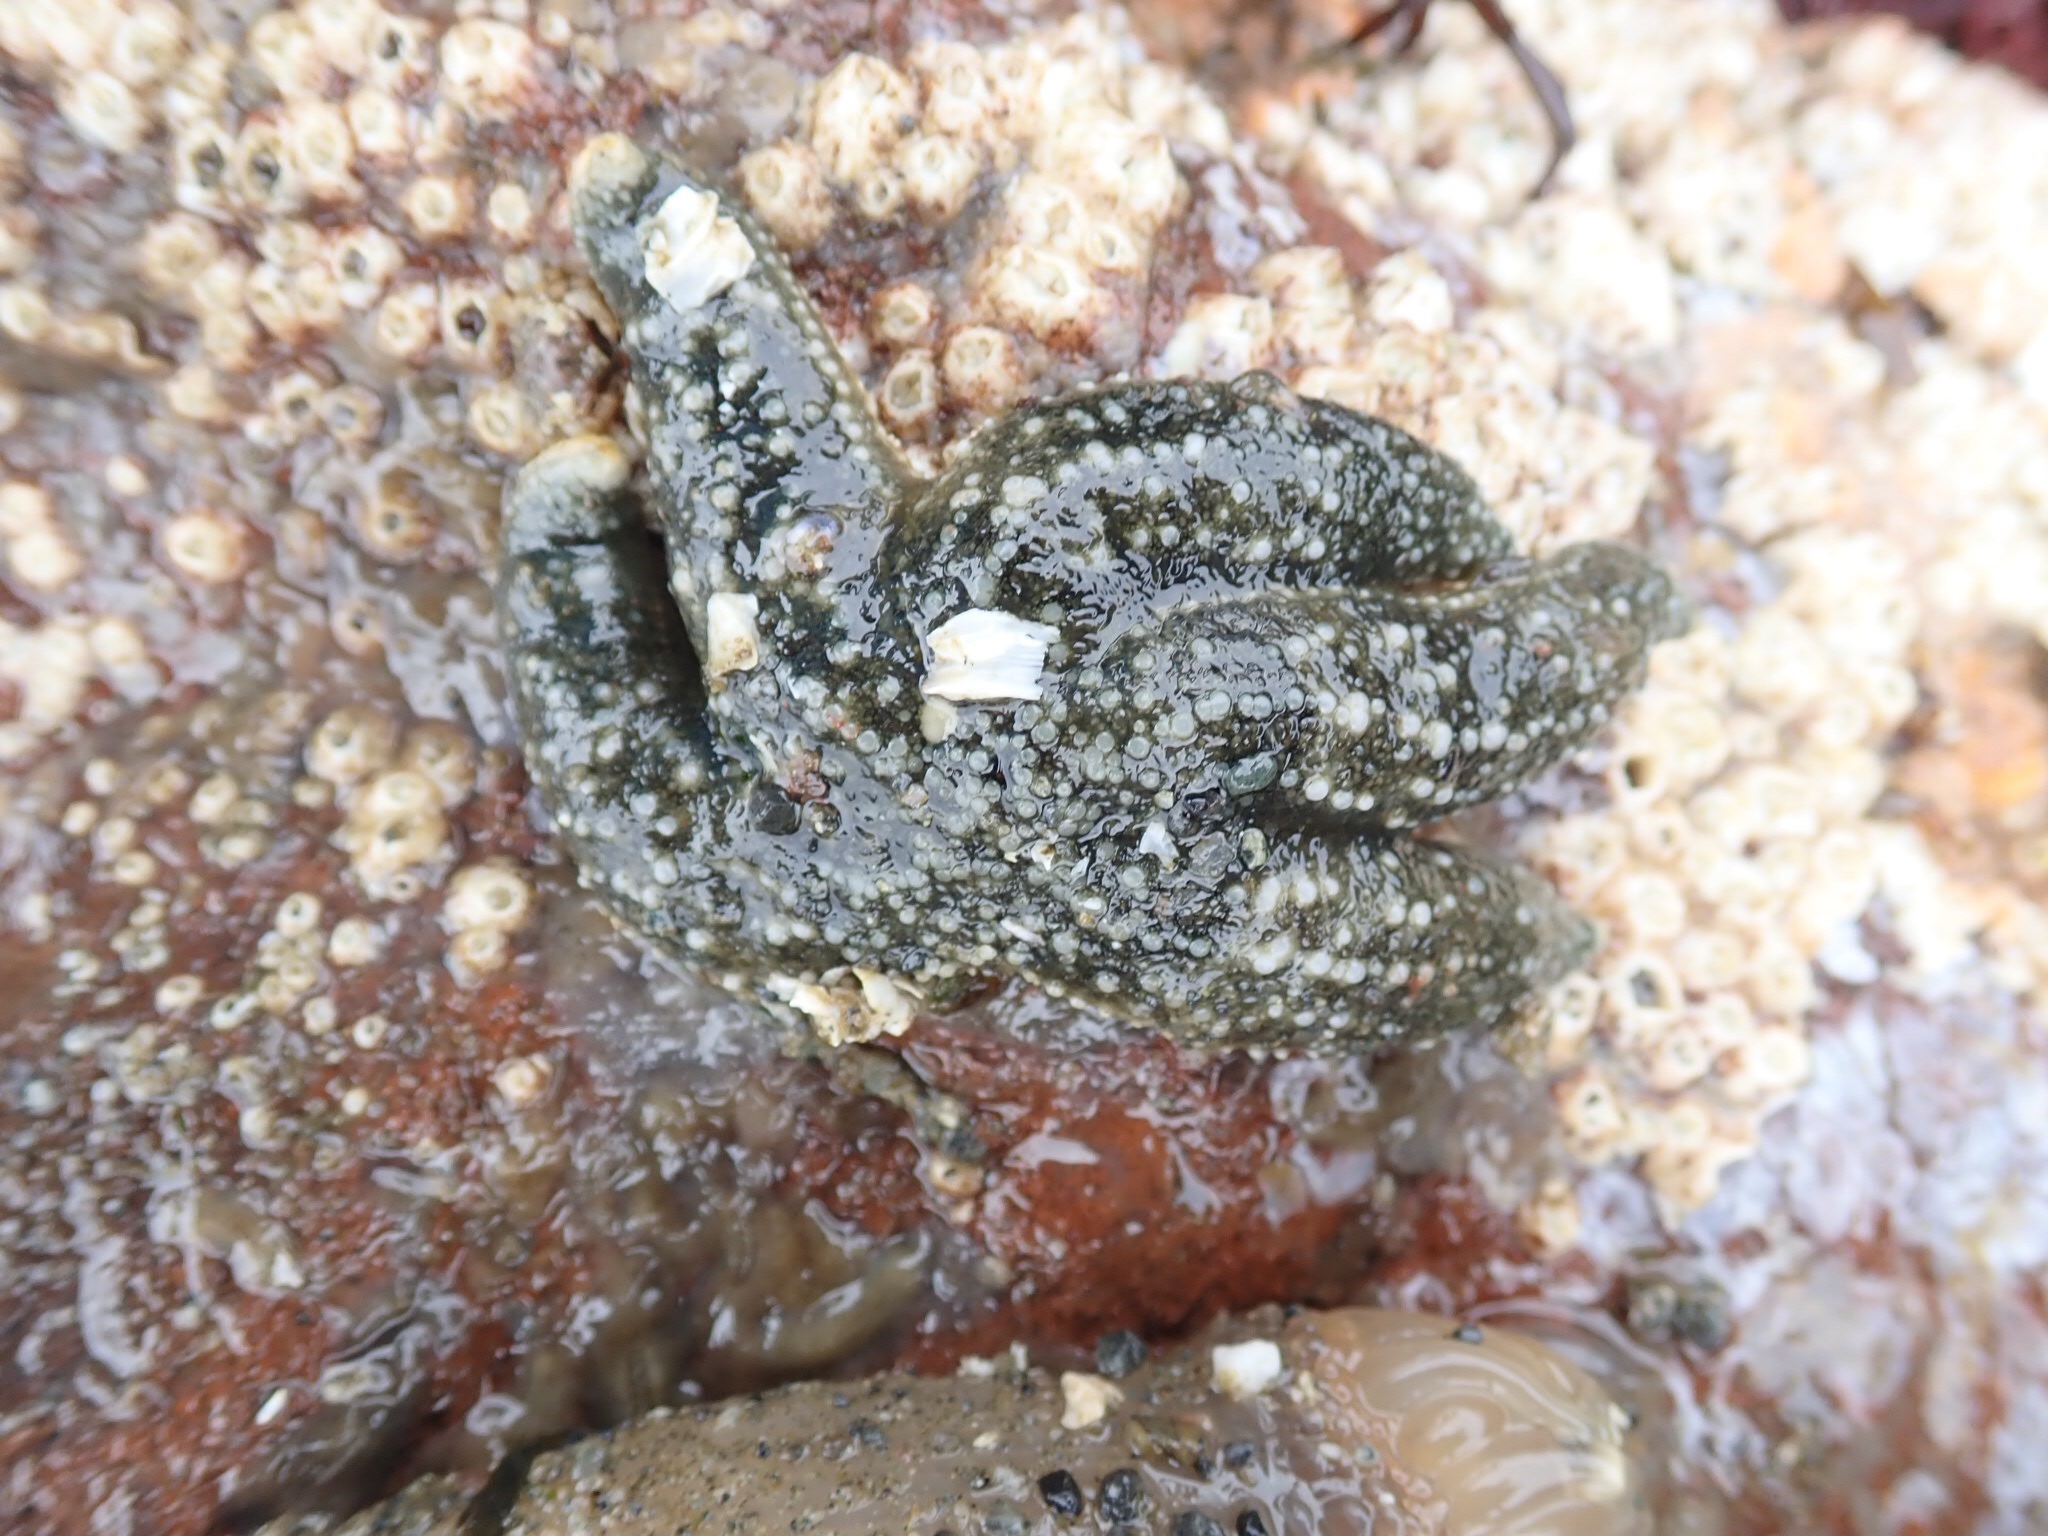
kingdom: Animalia
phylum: Echinodermata
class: Asteroidea
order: Forcipulatida
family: Asteriidae
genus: Leptasterias
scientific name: Leptasterias hexactis
